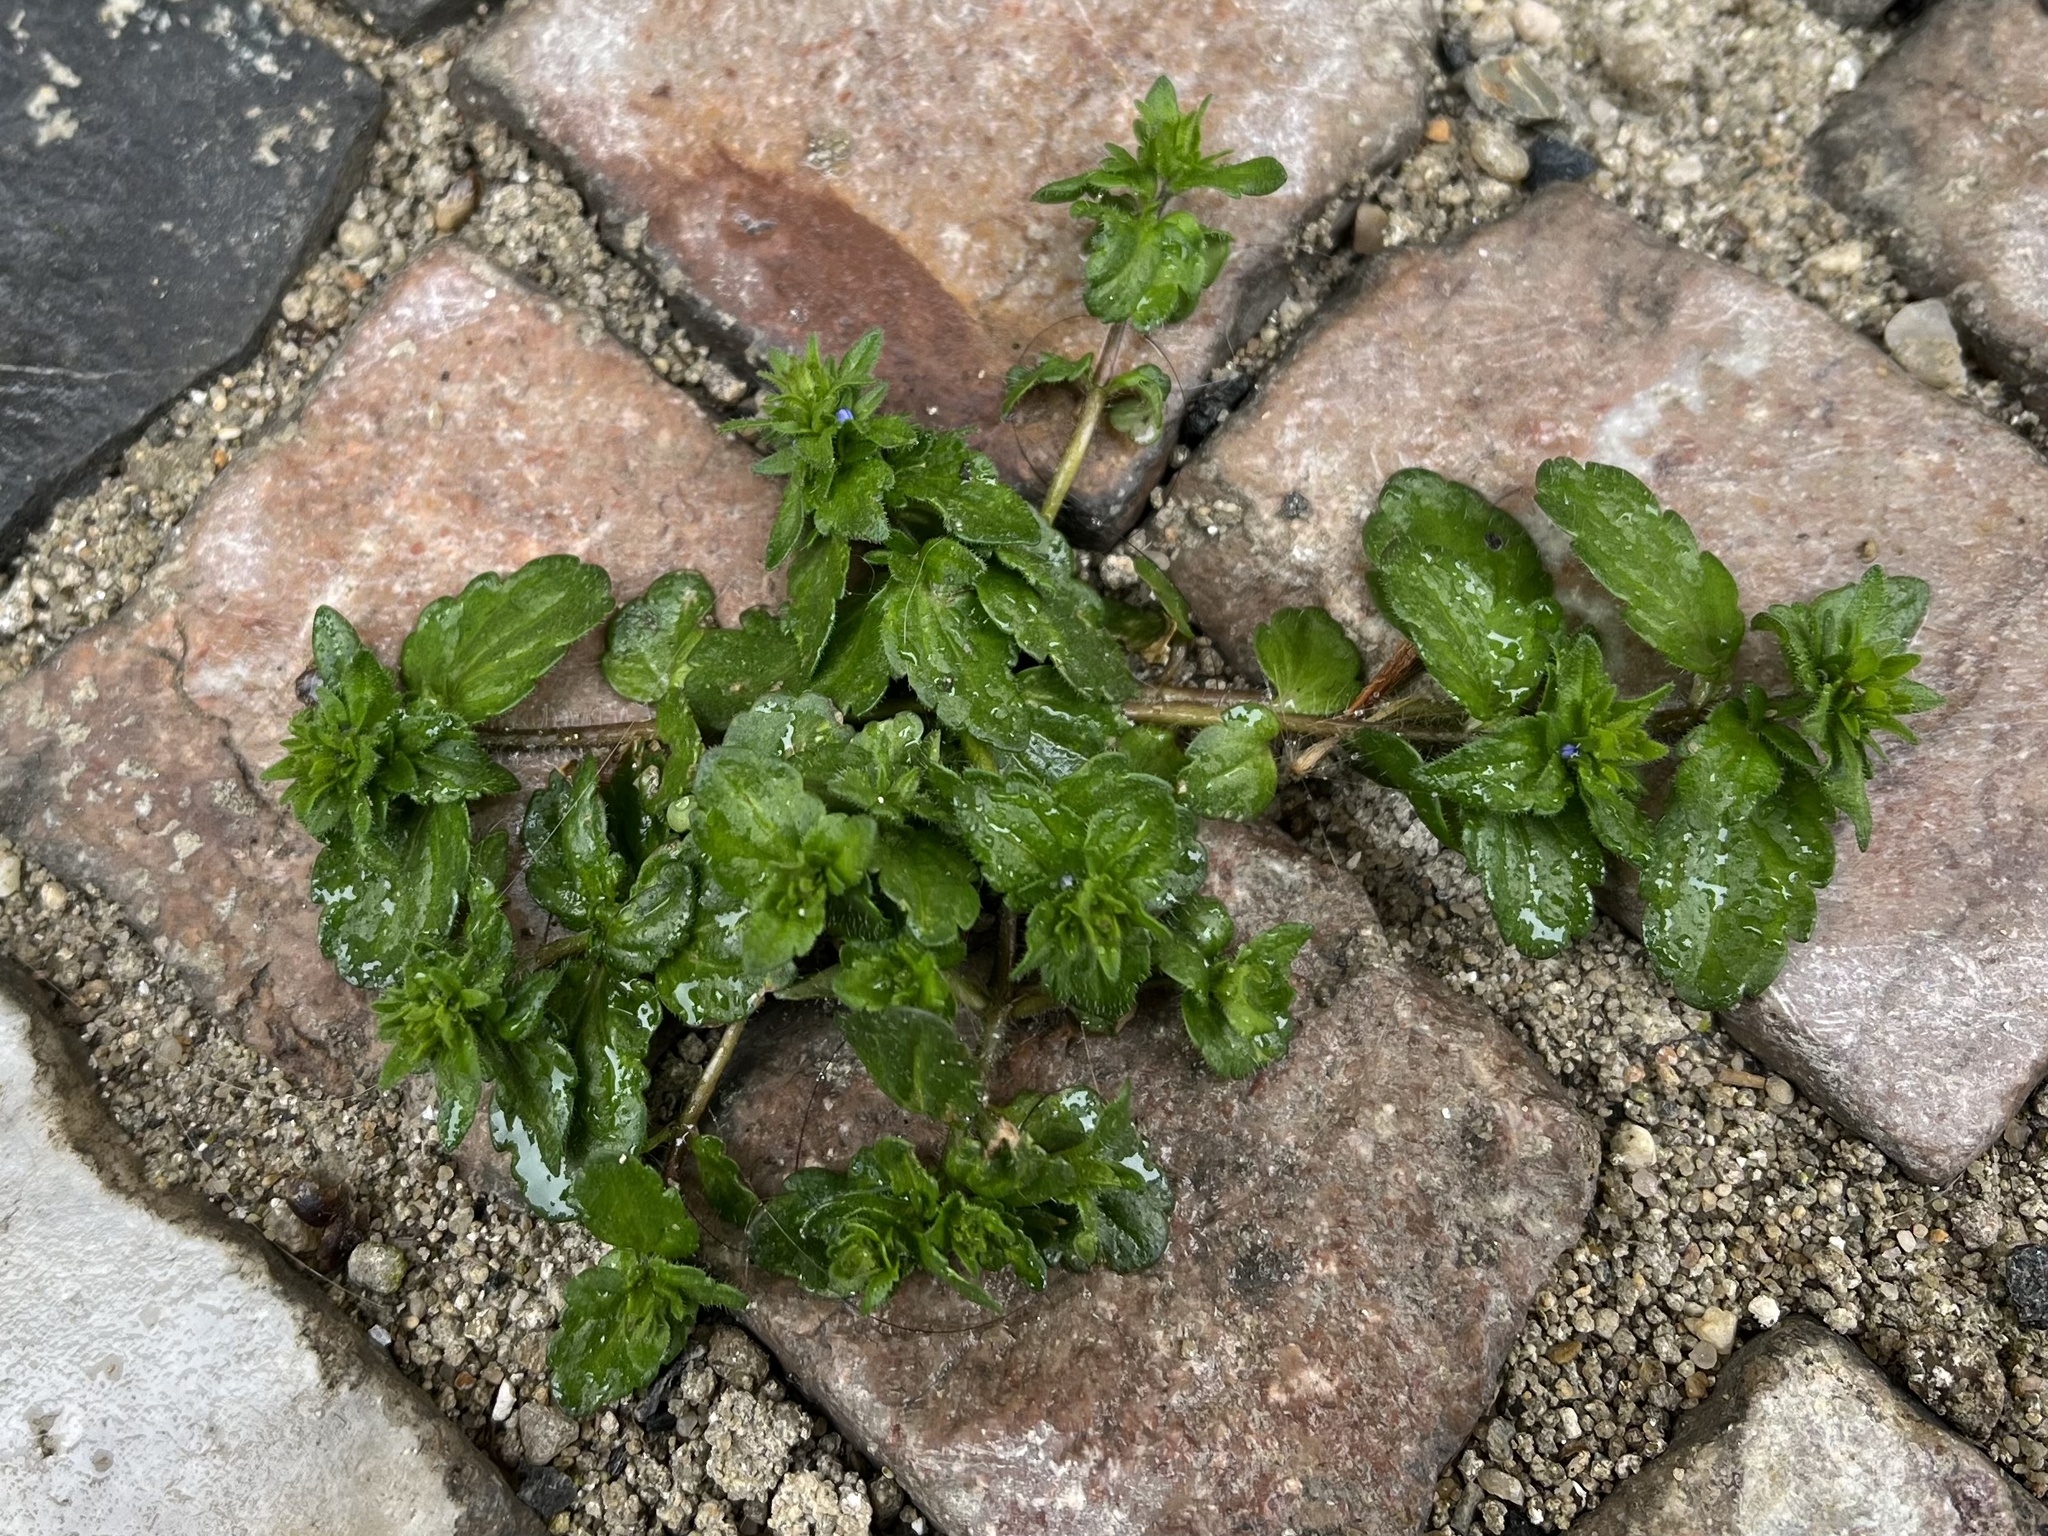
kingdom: Plantae
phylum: Tracheophyta
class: Magnoliopsida
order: Lamiales
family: Plantaginaceae
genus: Veronica
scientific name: Veronica arvensis
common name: Corn speedwell
